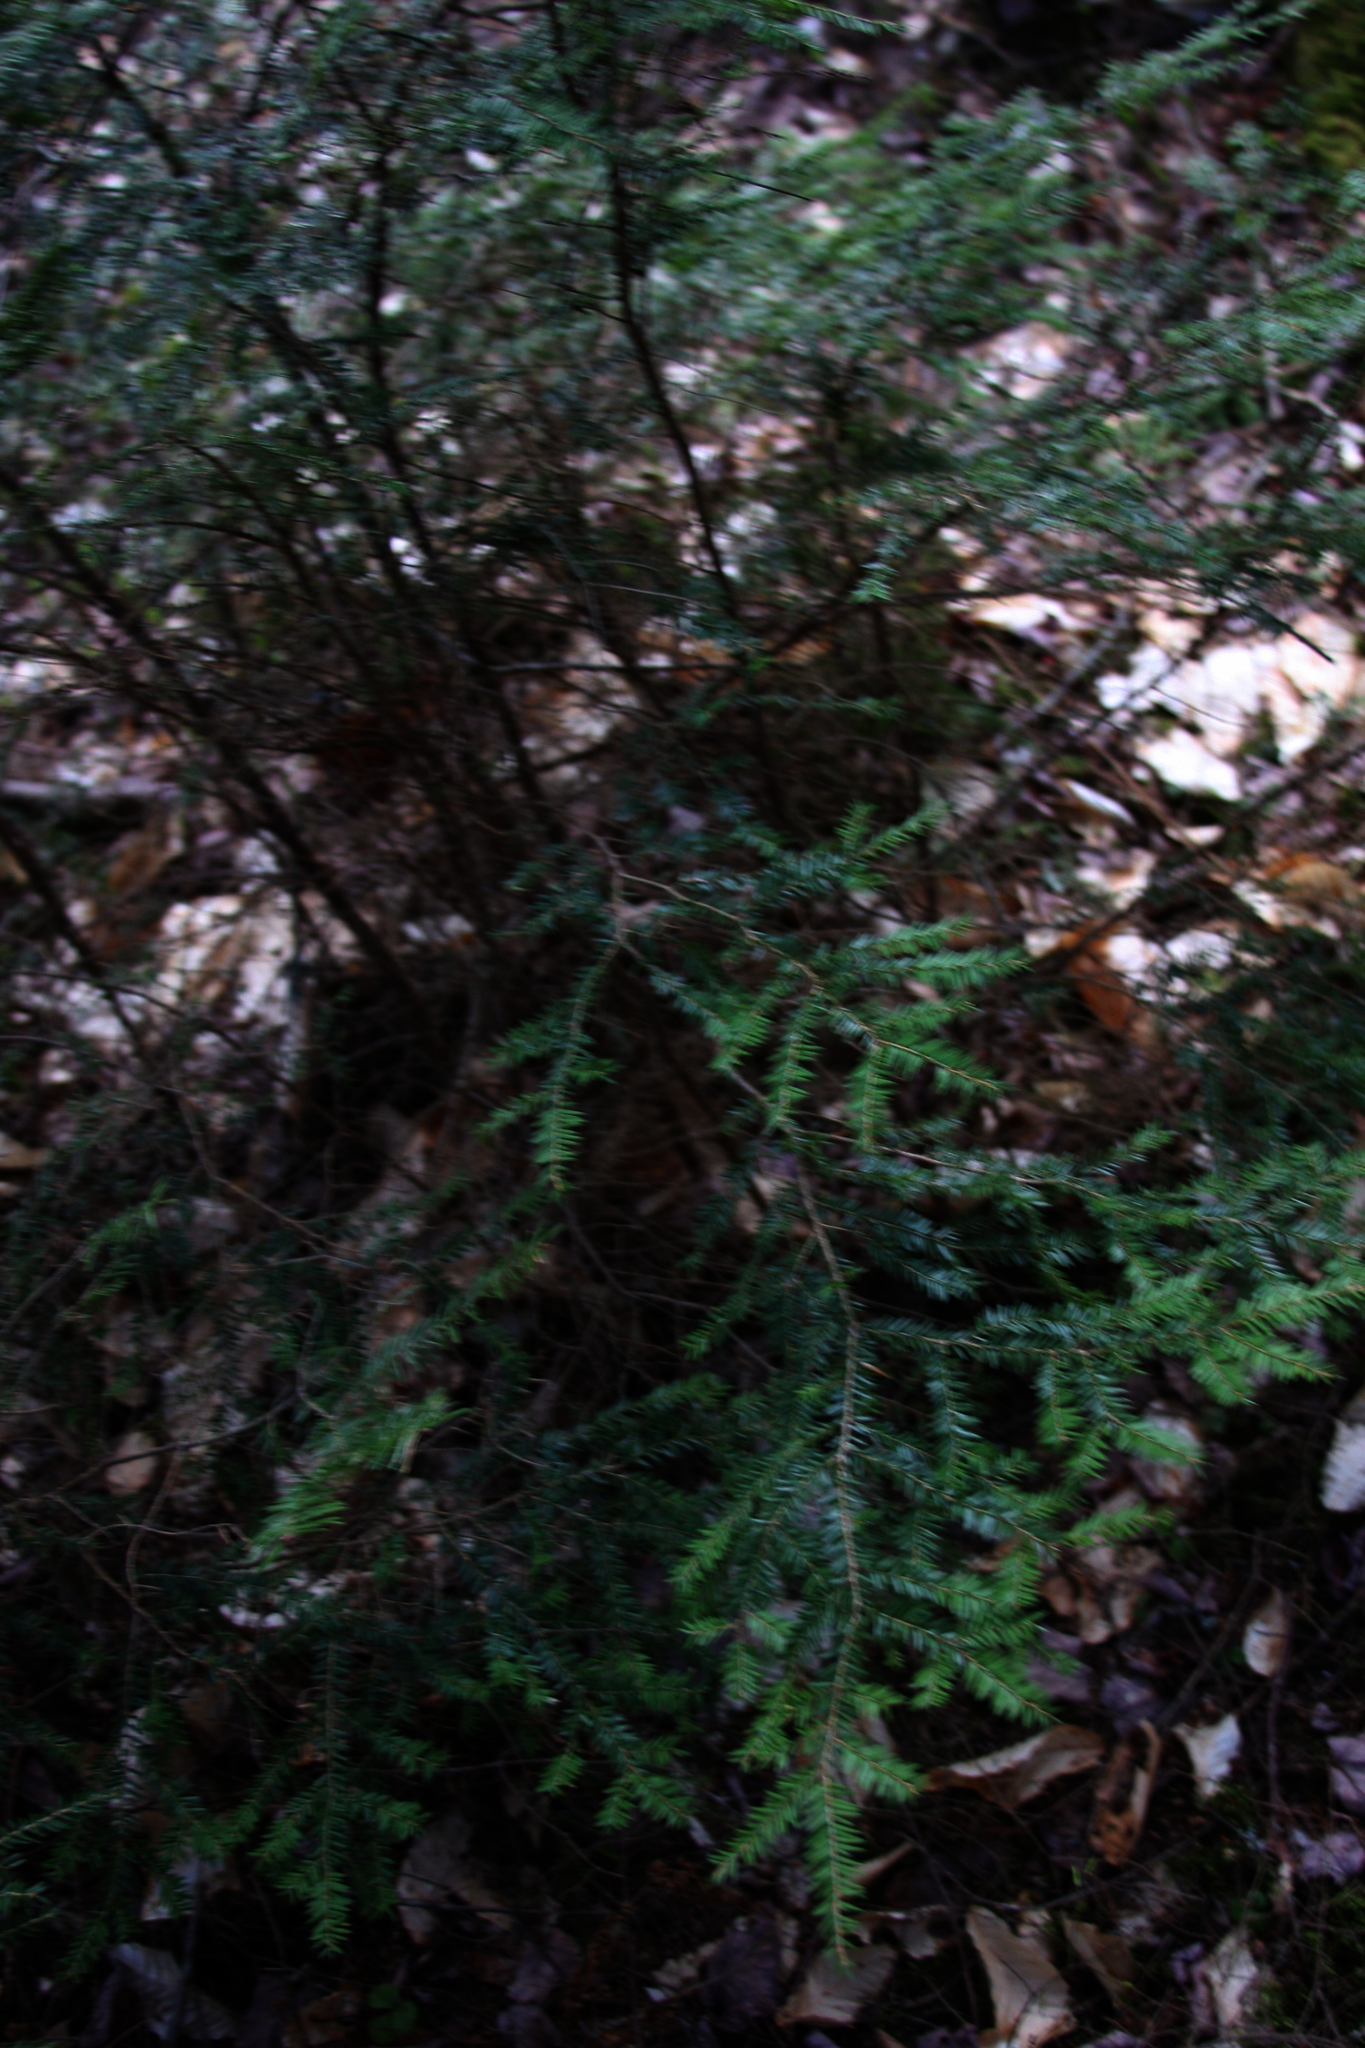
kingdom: Plantae
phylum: Tracheophyta
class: Pinopsida
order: Pinales
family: Pinaceae
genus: Tsuga
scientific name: Tsuga canadensis
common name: Eastern hemlock
